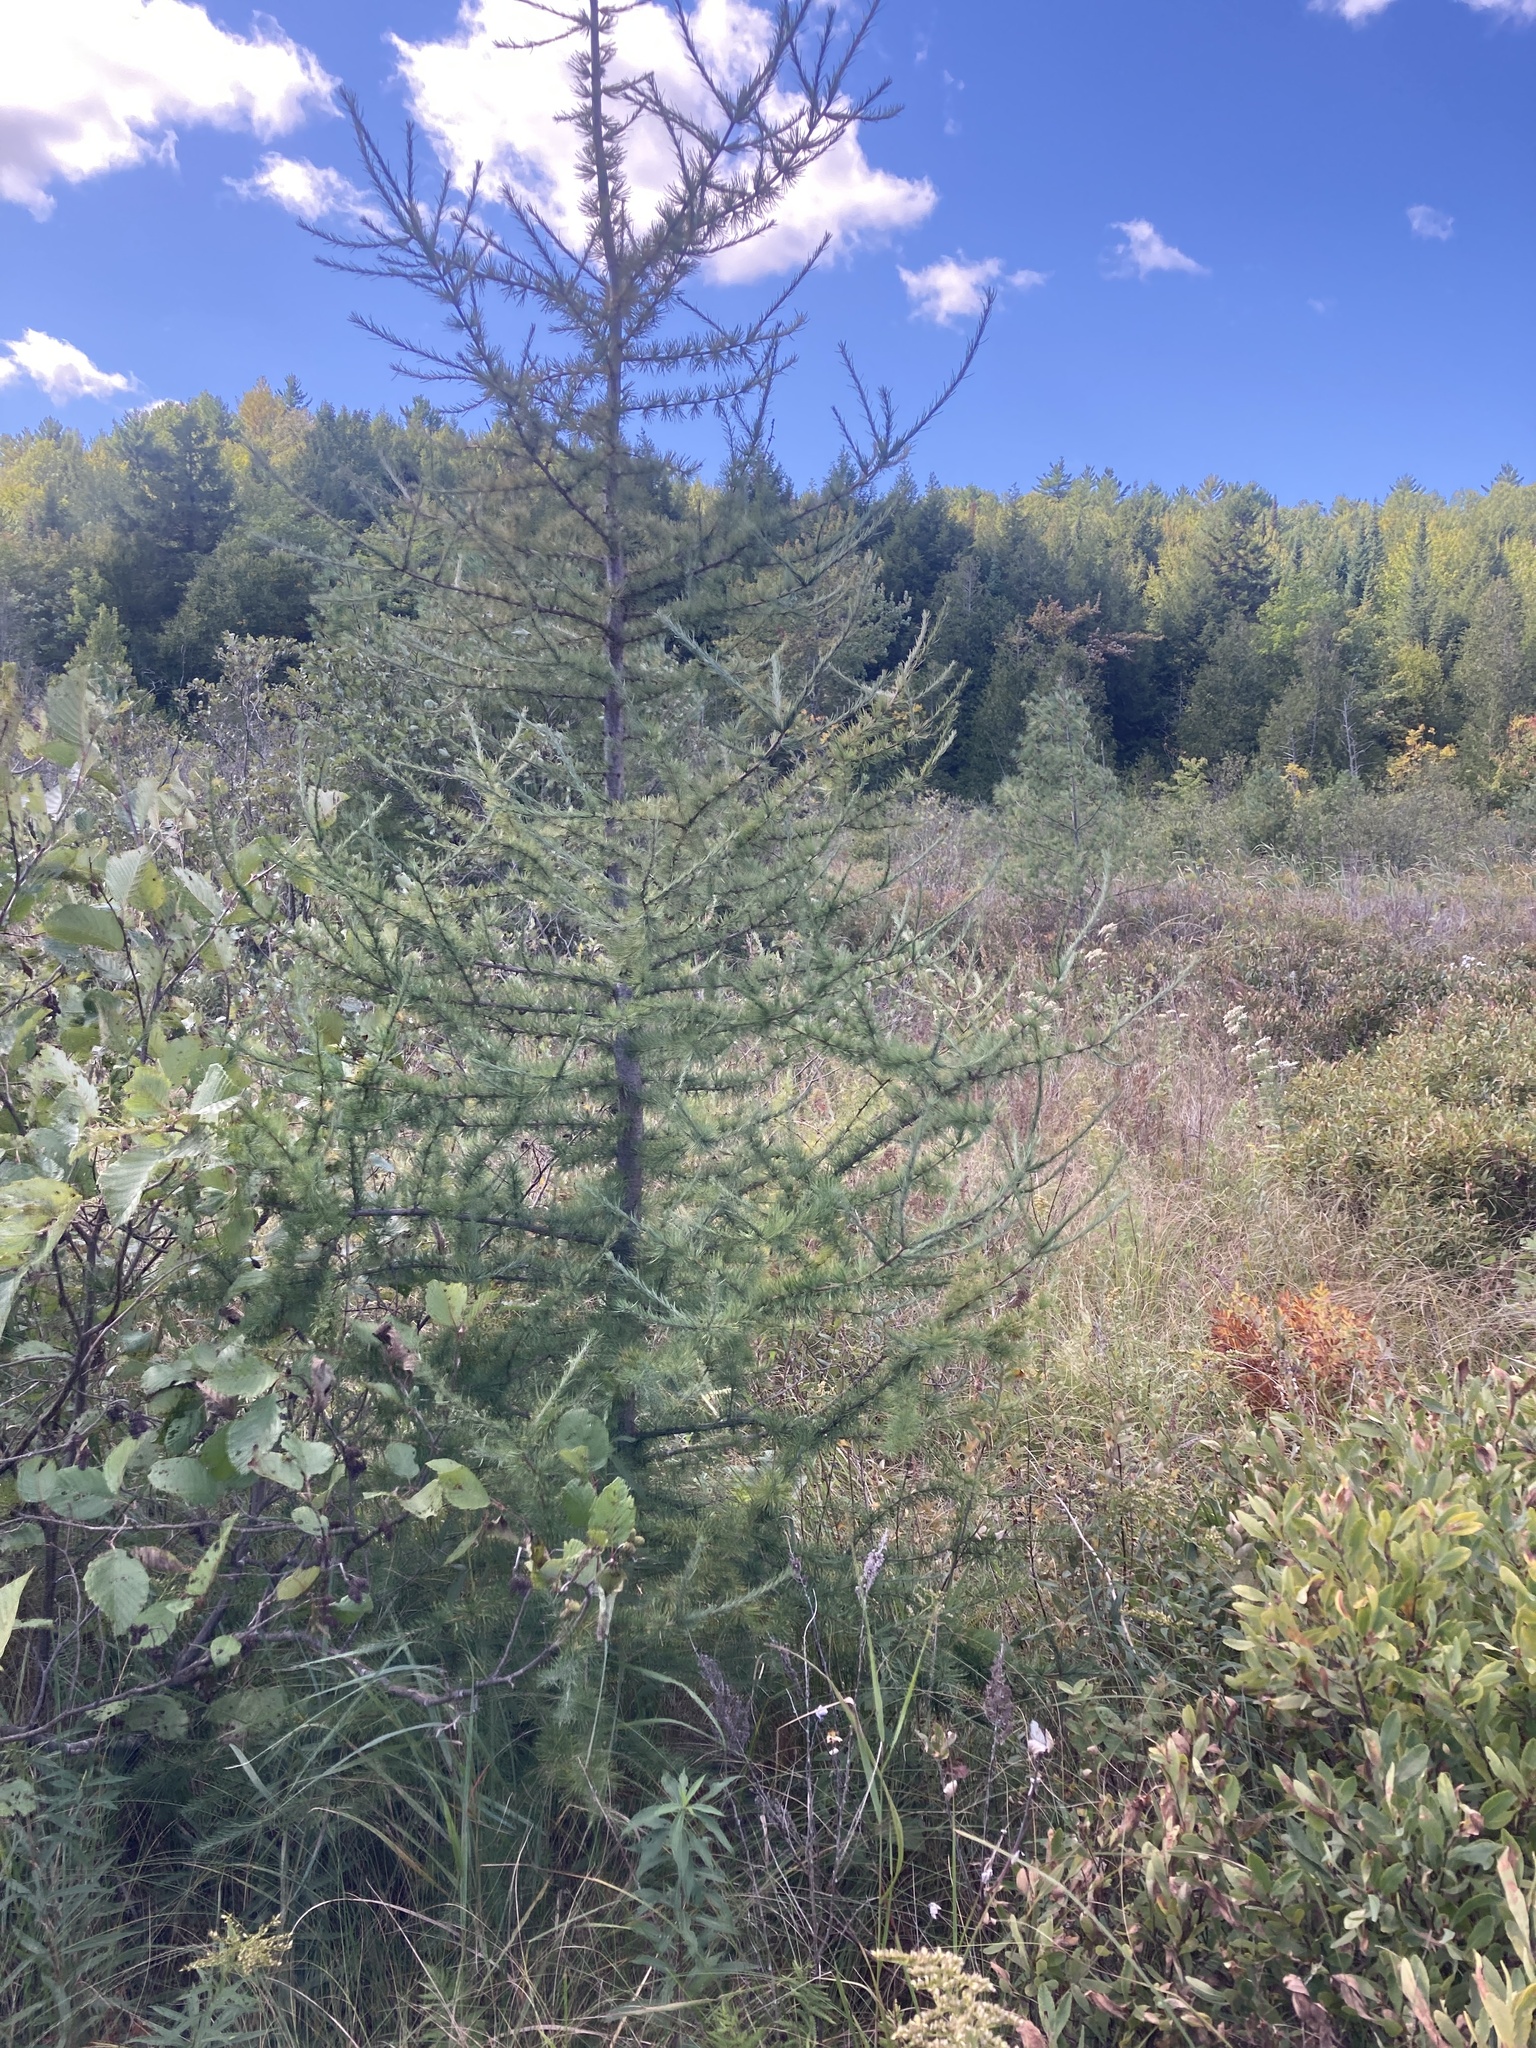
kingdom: Plantae
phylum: Tracheophyta
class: Pinopsida
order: Pinales
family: Pinaceae
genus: Larix
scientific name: Larix laricina
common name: American larch
